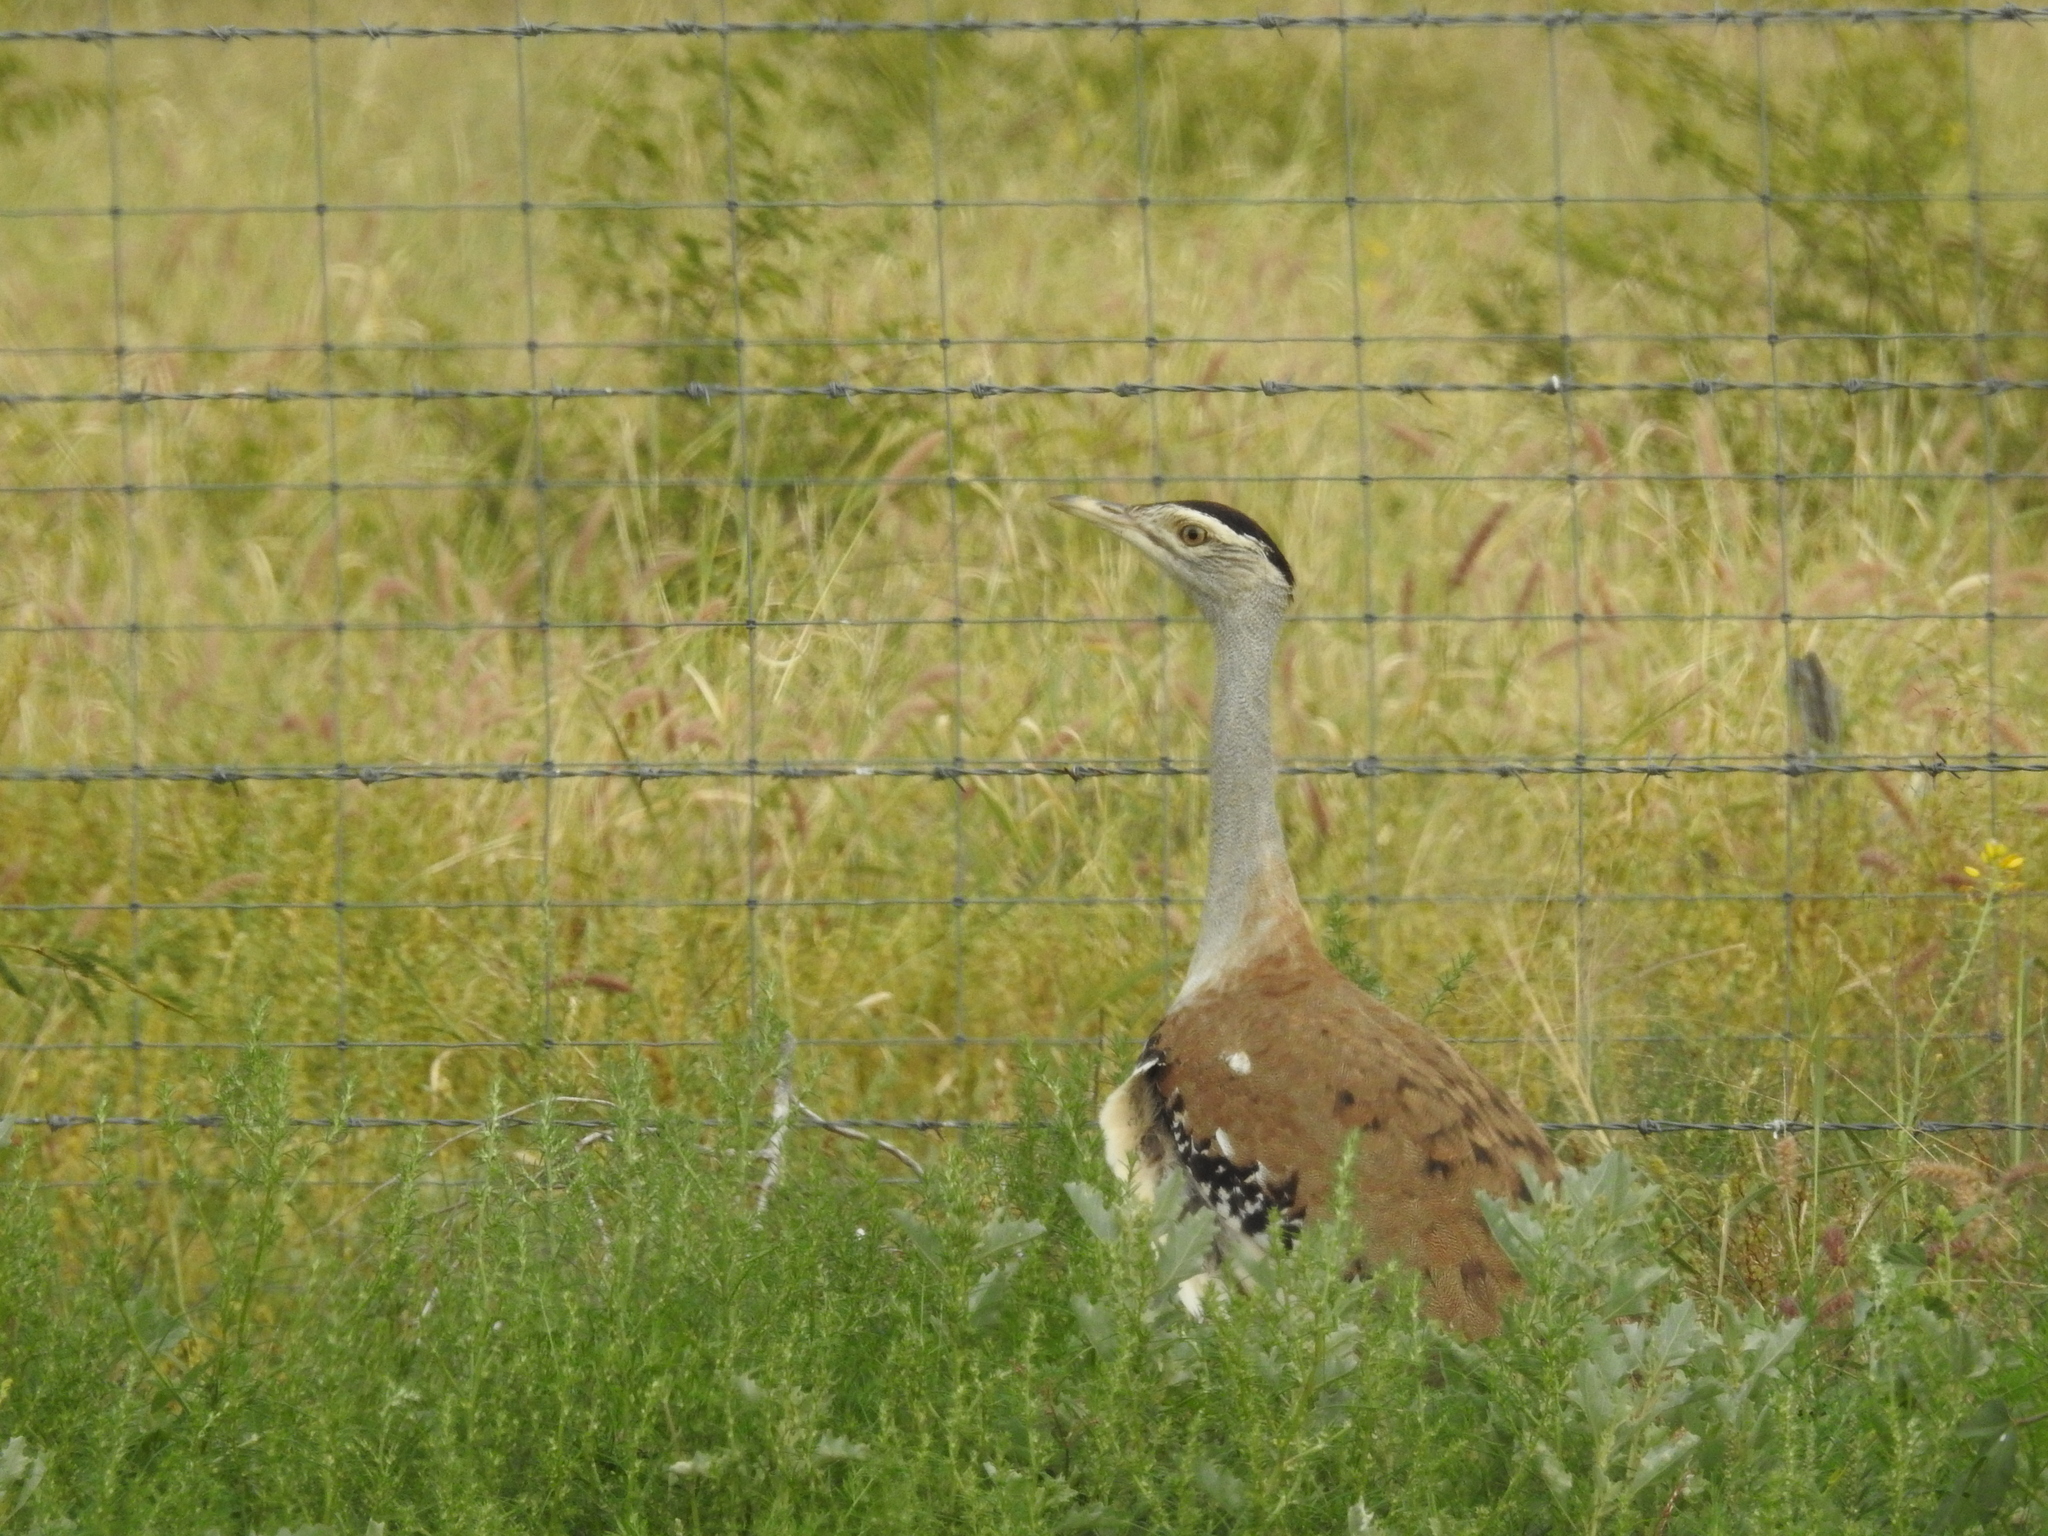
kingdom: Animalia
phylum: Chordata
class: Aves
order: Otidiformes
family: Otididae
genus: Ardeotis
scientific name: Ardeotis australis
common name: Australian bustard
